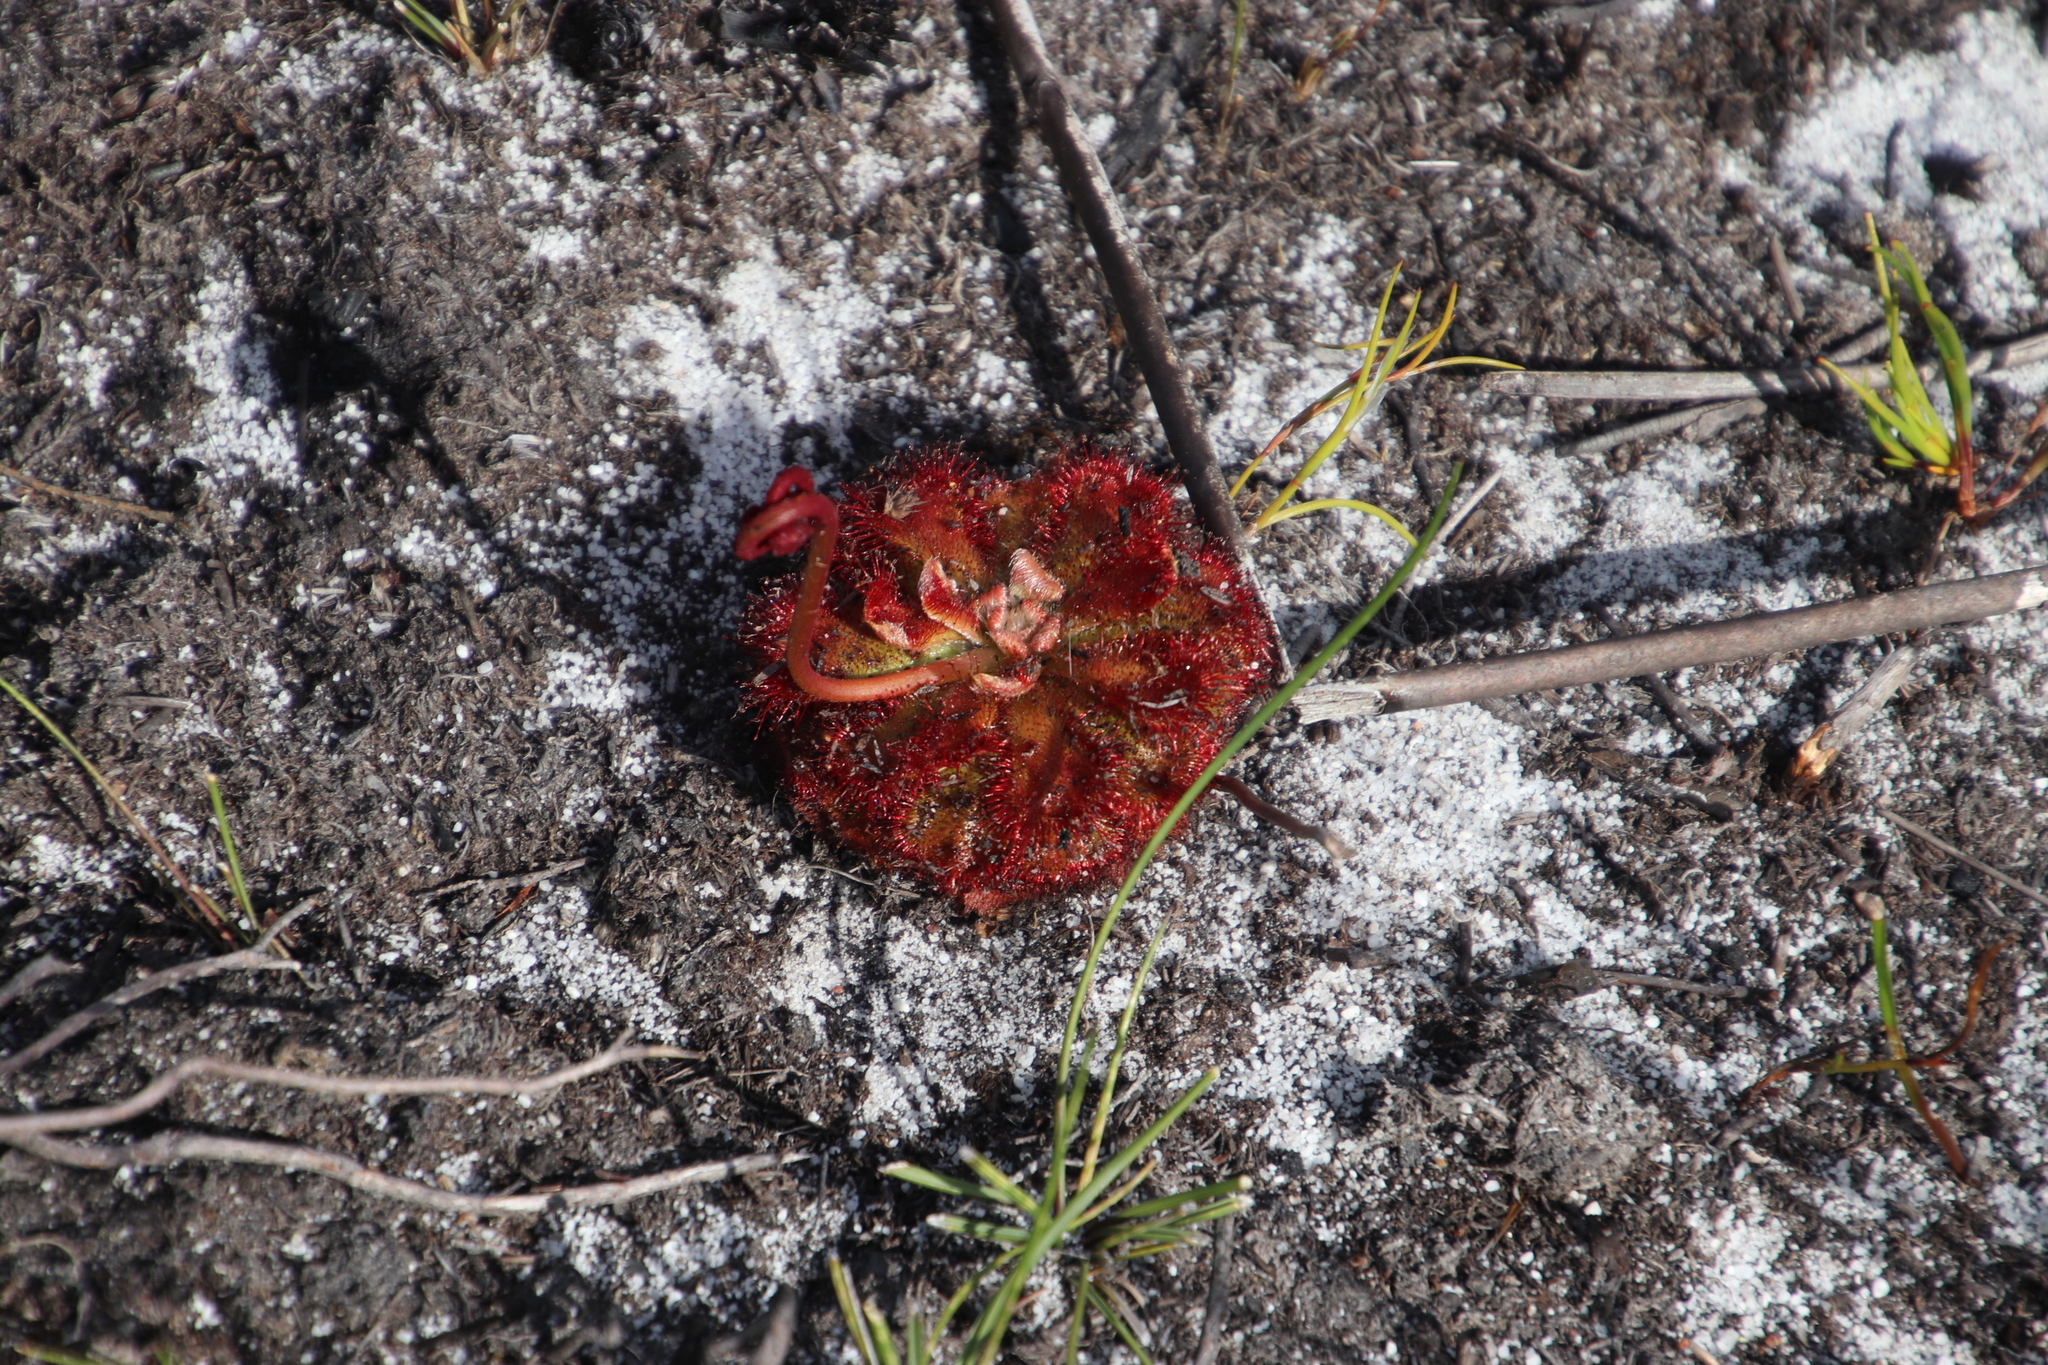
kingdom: Plantae
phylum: Tracheophyta
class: Magnoliopsida
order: Caryophyllales
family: Droseraceae
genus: Drosera
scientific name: Drosera aliciae
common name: Alice sundew
